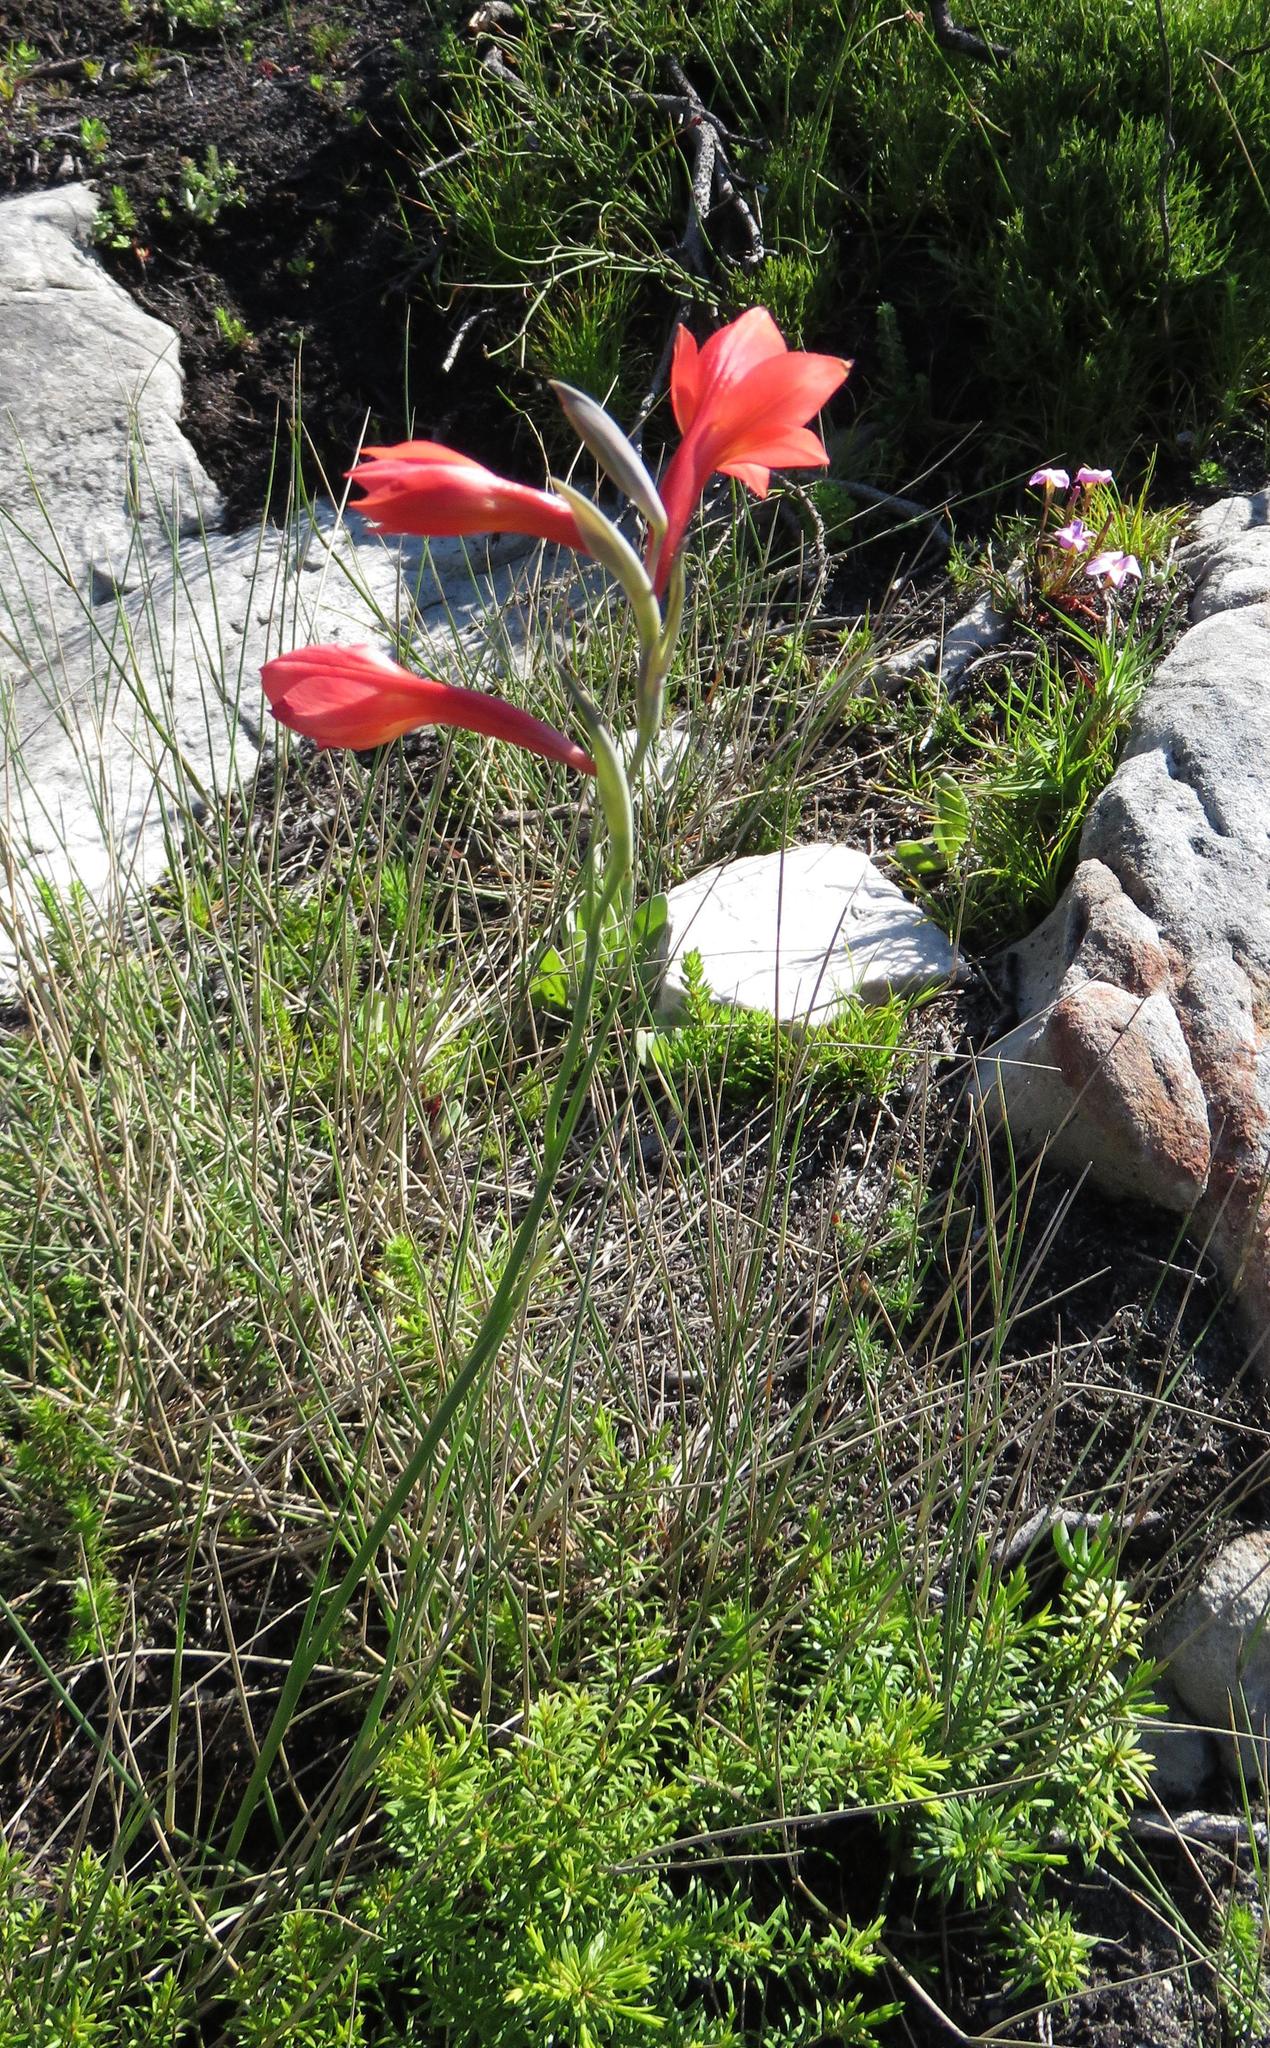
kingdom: Plantae
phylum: Tracheophyta
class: Liliopsida
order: Asparagales
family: Iridaceae
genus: Gladiolus
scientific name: Gladiolus priorii
